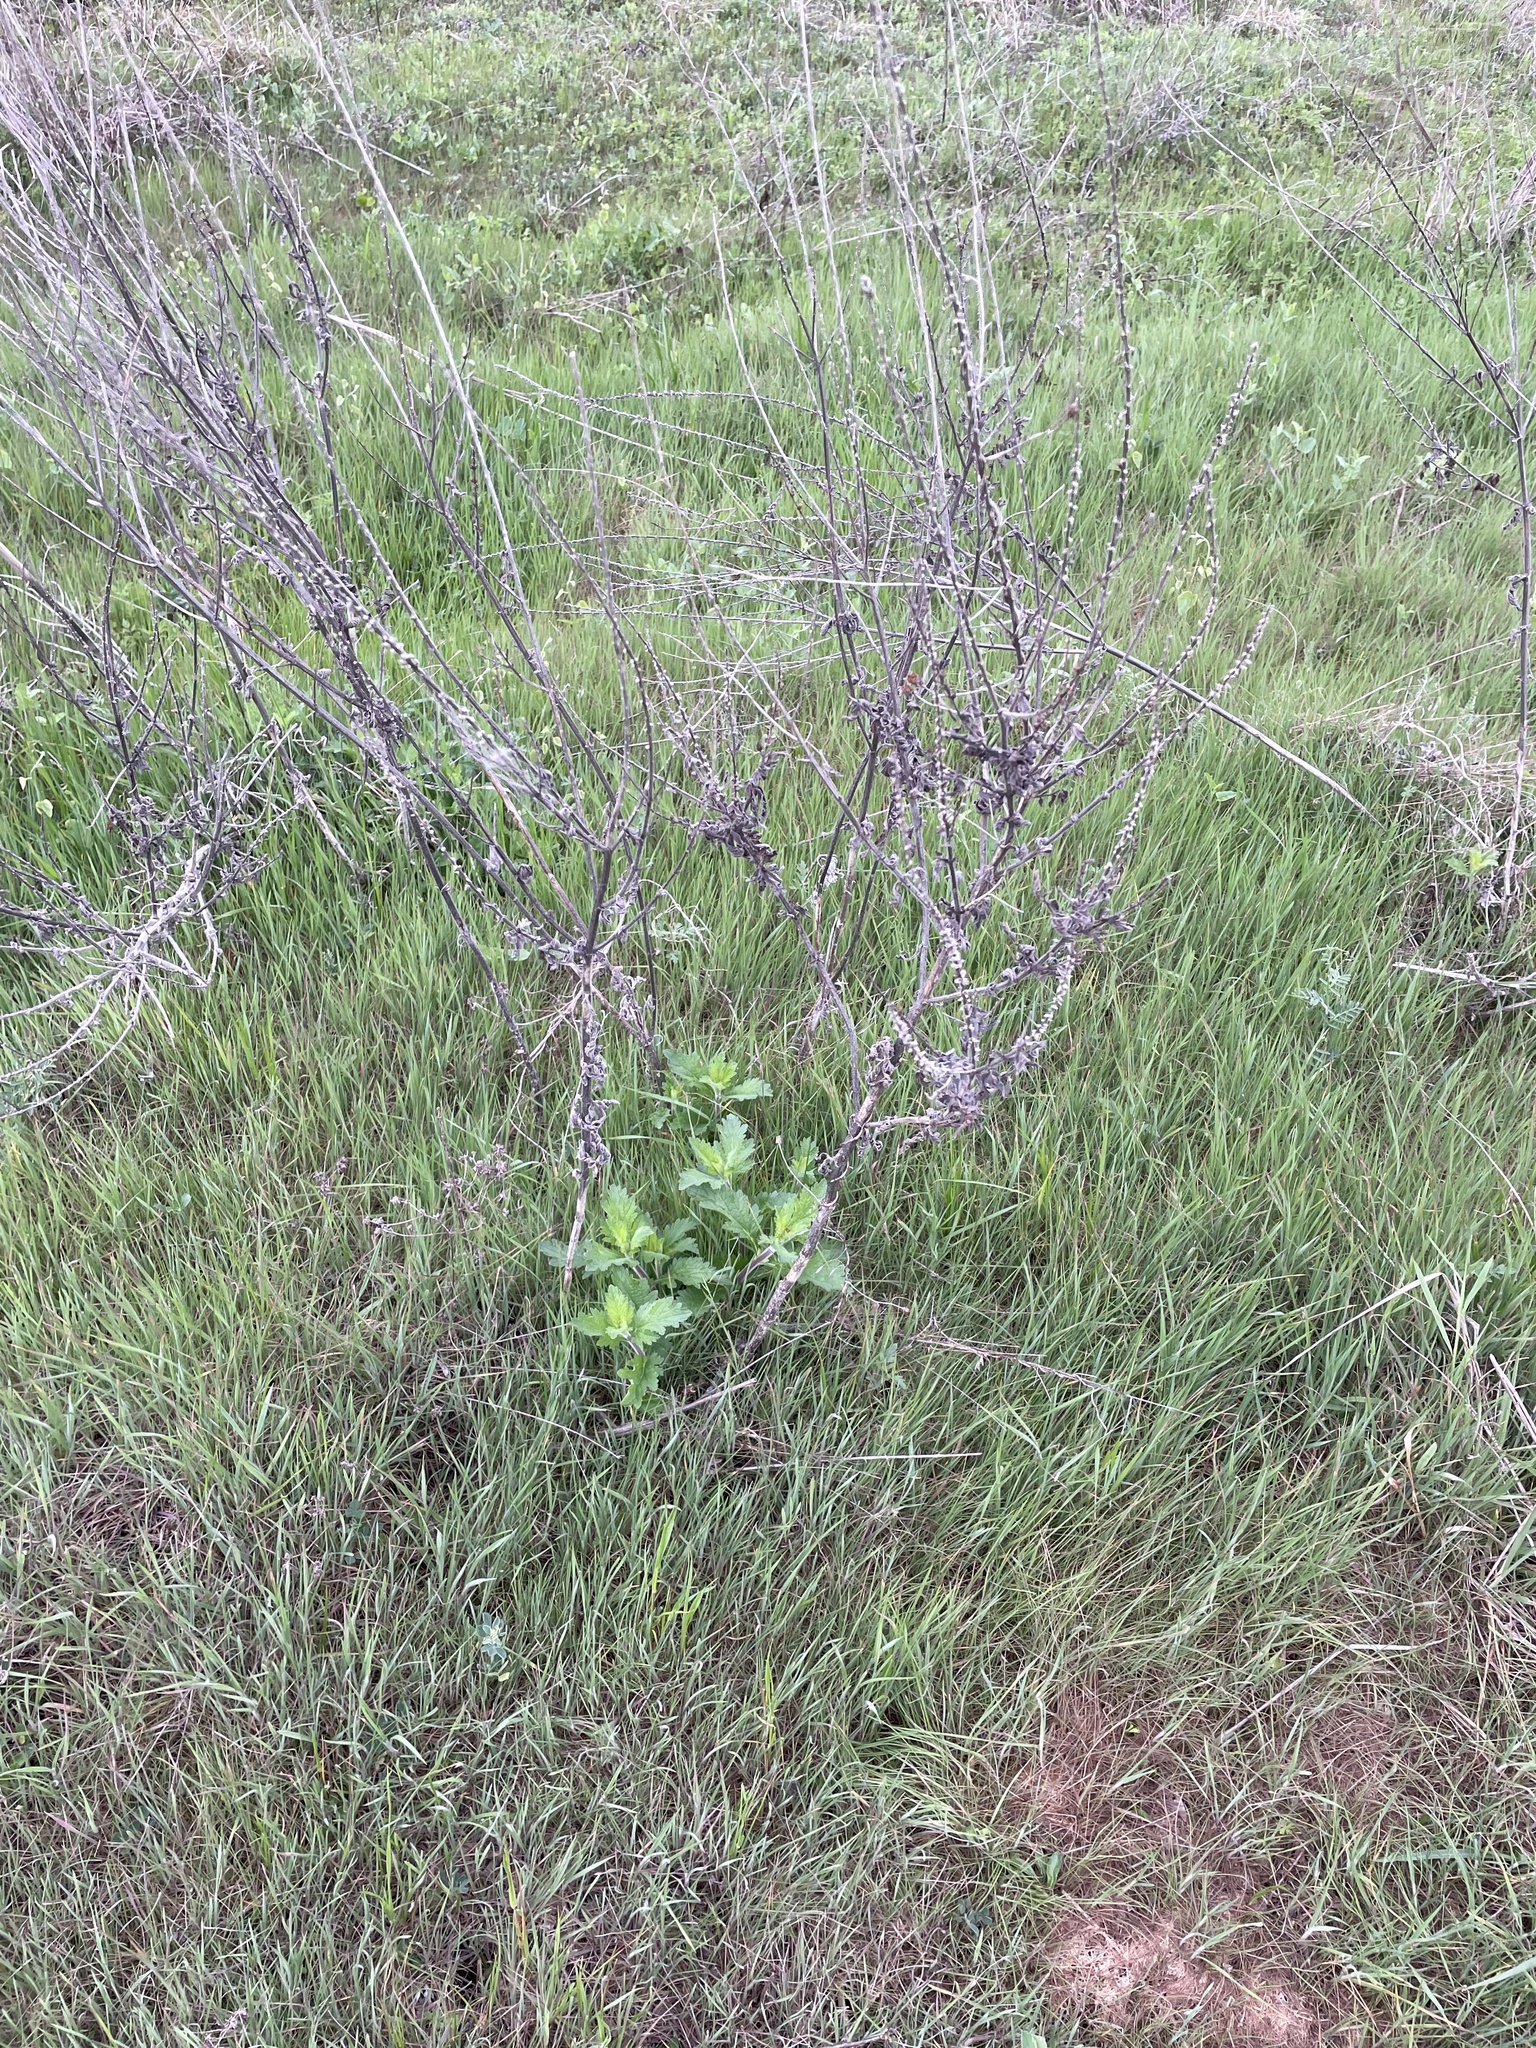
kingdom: Plantae
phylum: Tracheophyta
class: Magnoliopsida
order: Lamiales
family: Verbenaceae
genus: Verbena
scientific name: Verbena xutha
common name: Gulf vervain
